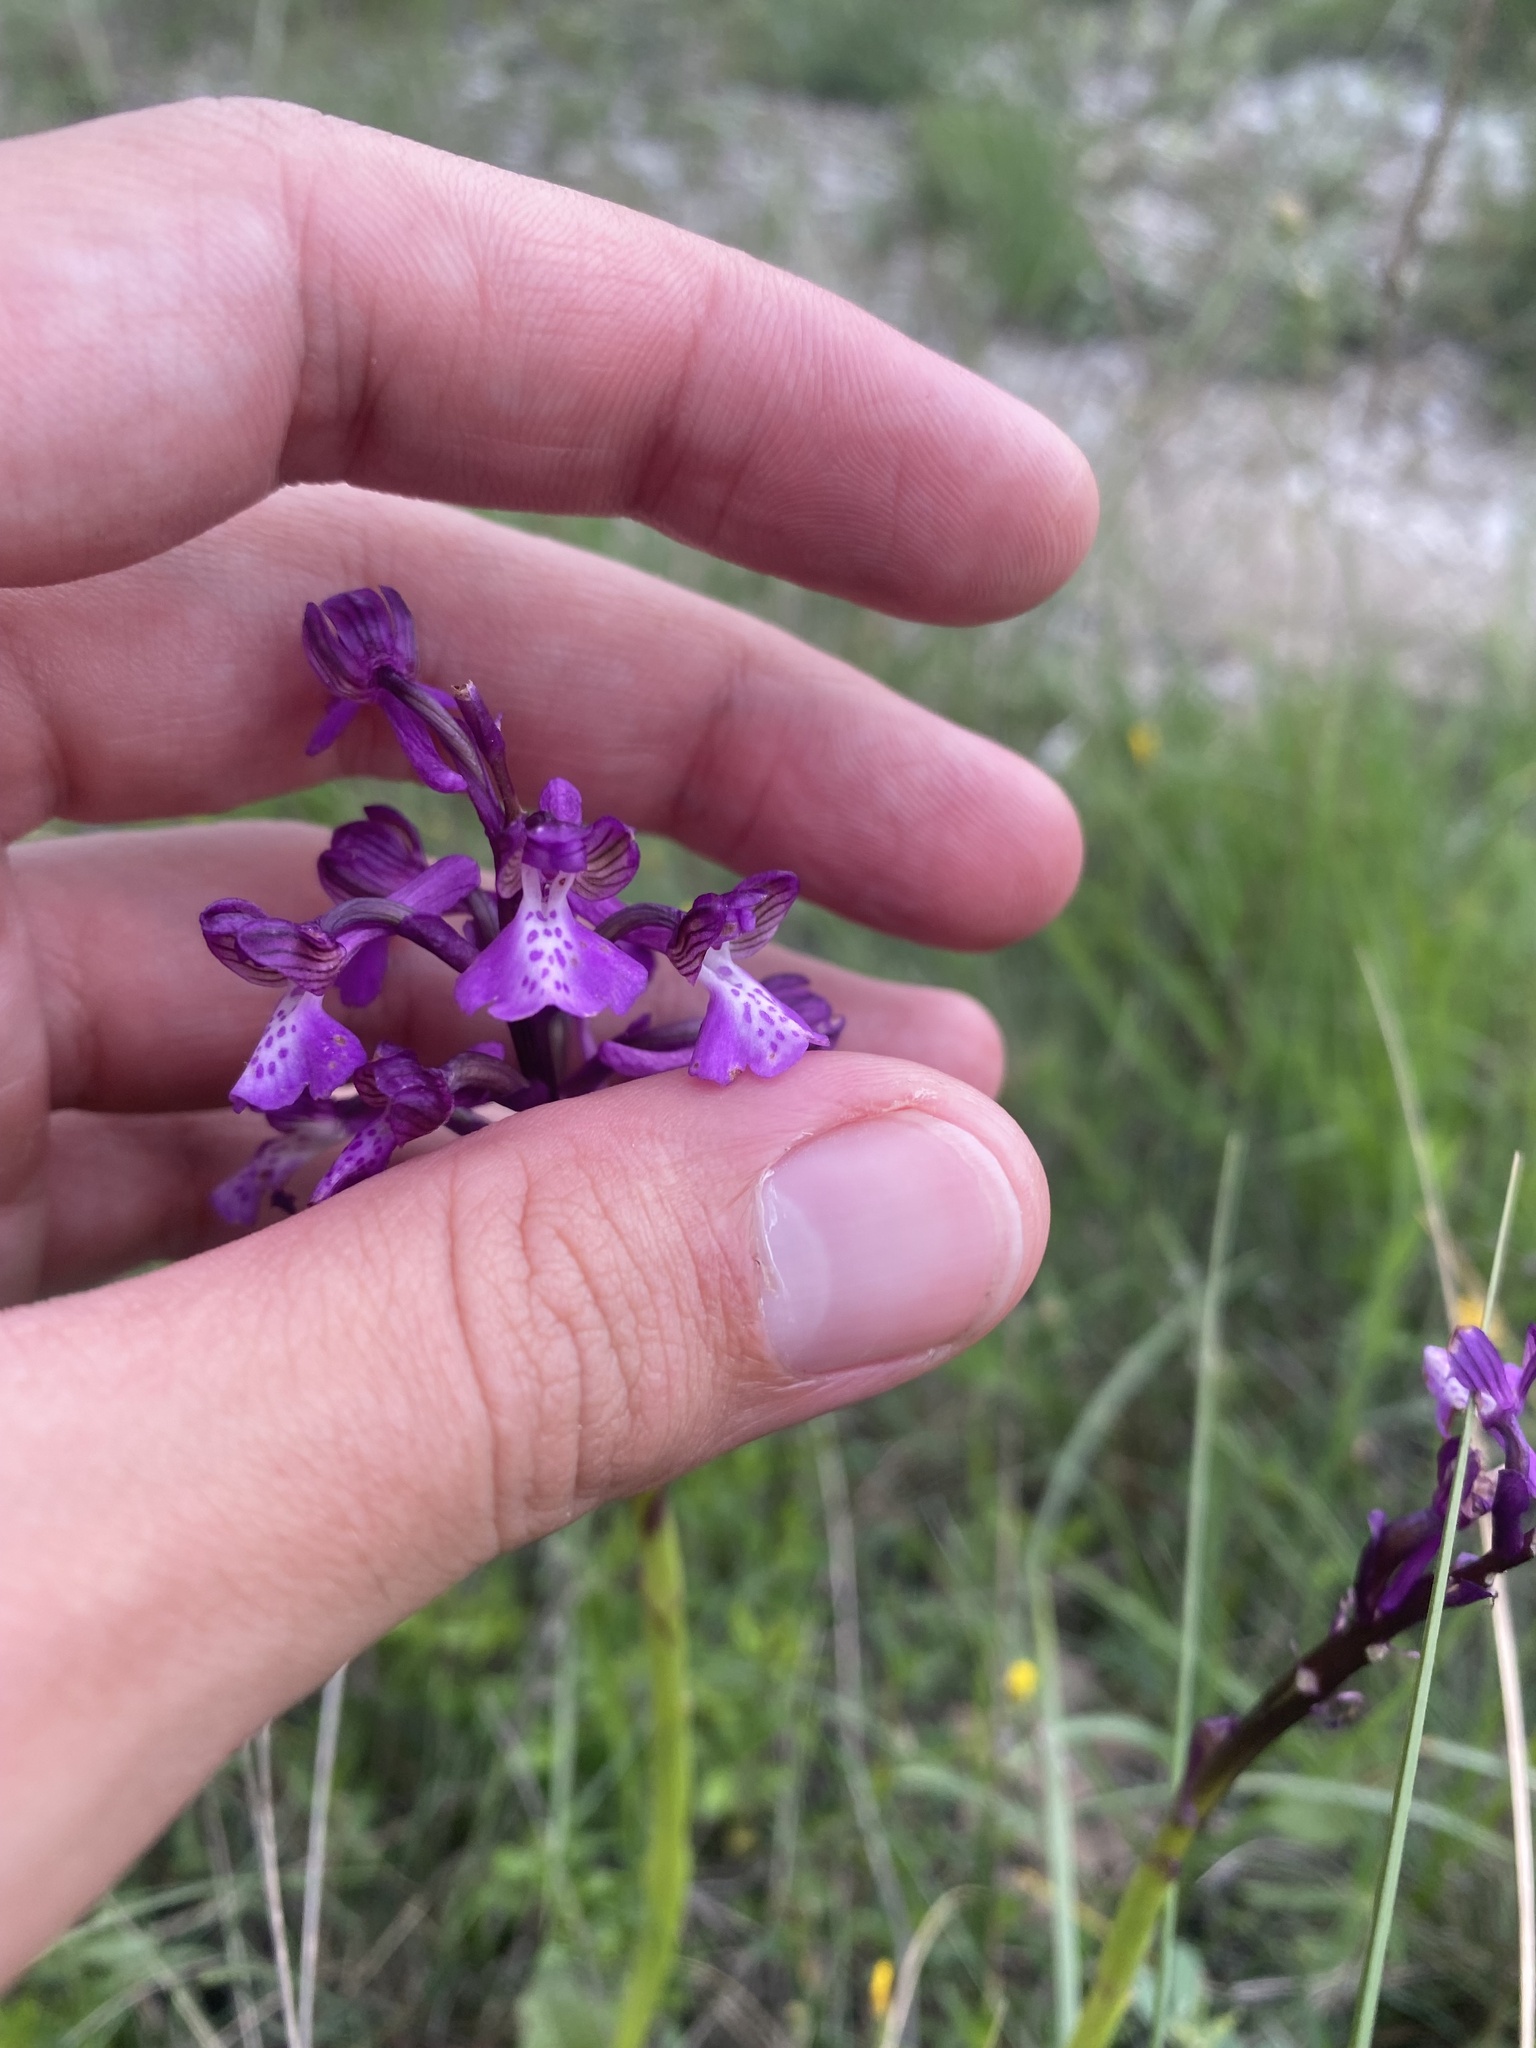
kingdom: Plantae
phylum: Tracheophyta
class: Liliopsida
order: Asparagales
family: Orchidaceae
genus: Anacamptis
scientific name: Anacamptis morio
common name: Green-winged orchid
